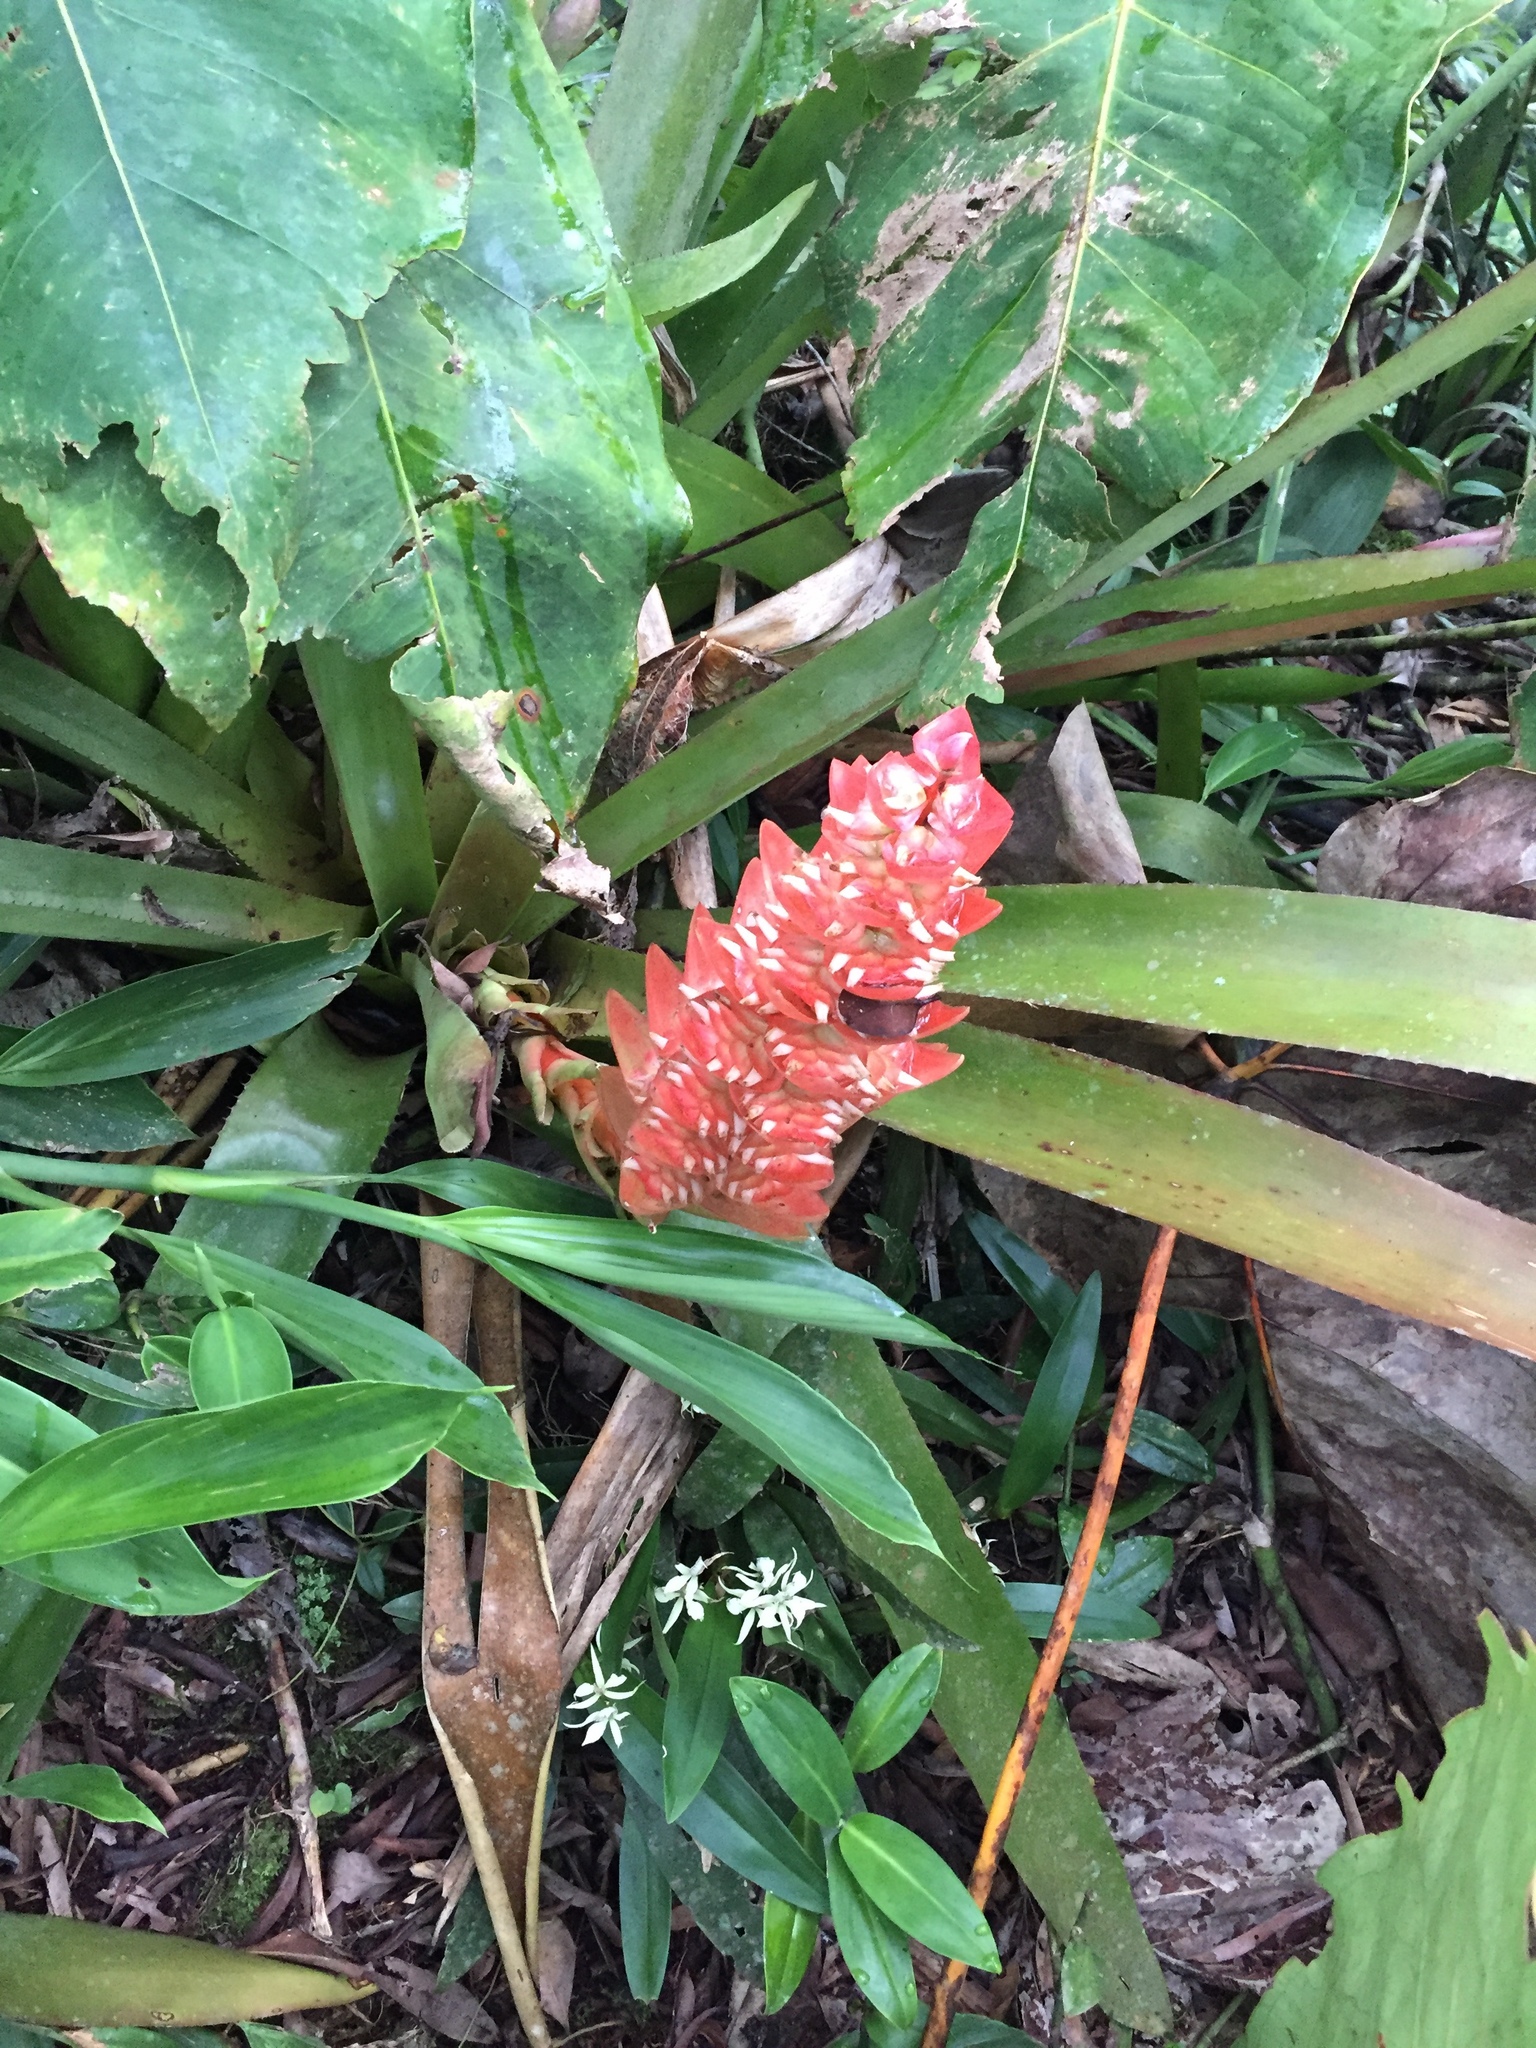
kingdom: Plantae
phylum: Tracheophyta
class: Liliopsida
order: Poales
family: Bromeliaceae
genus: Aechmea
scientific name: Aechmea hoppii
